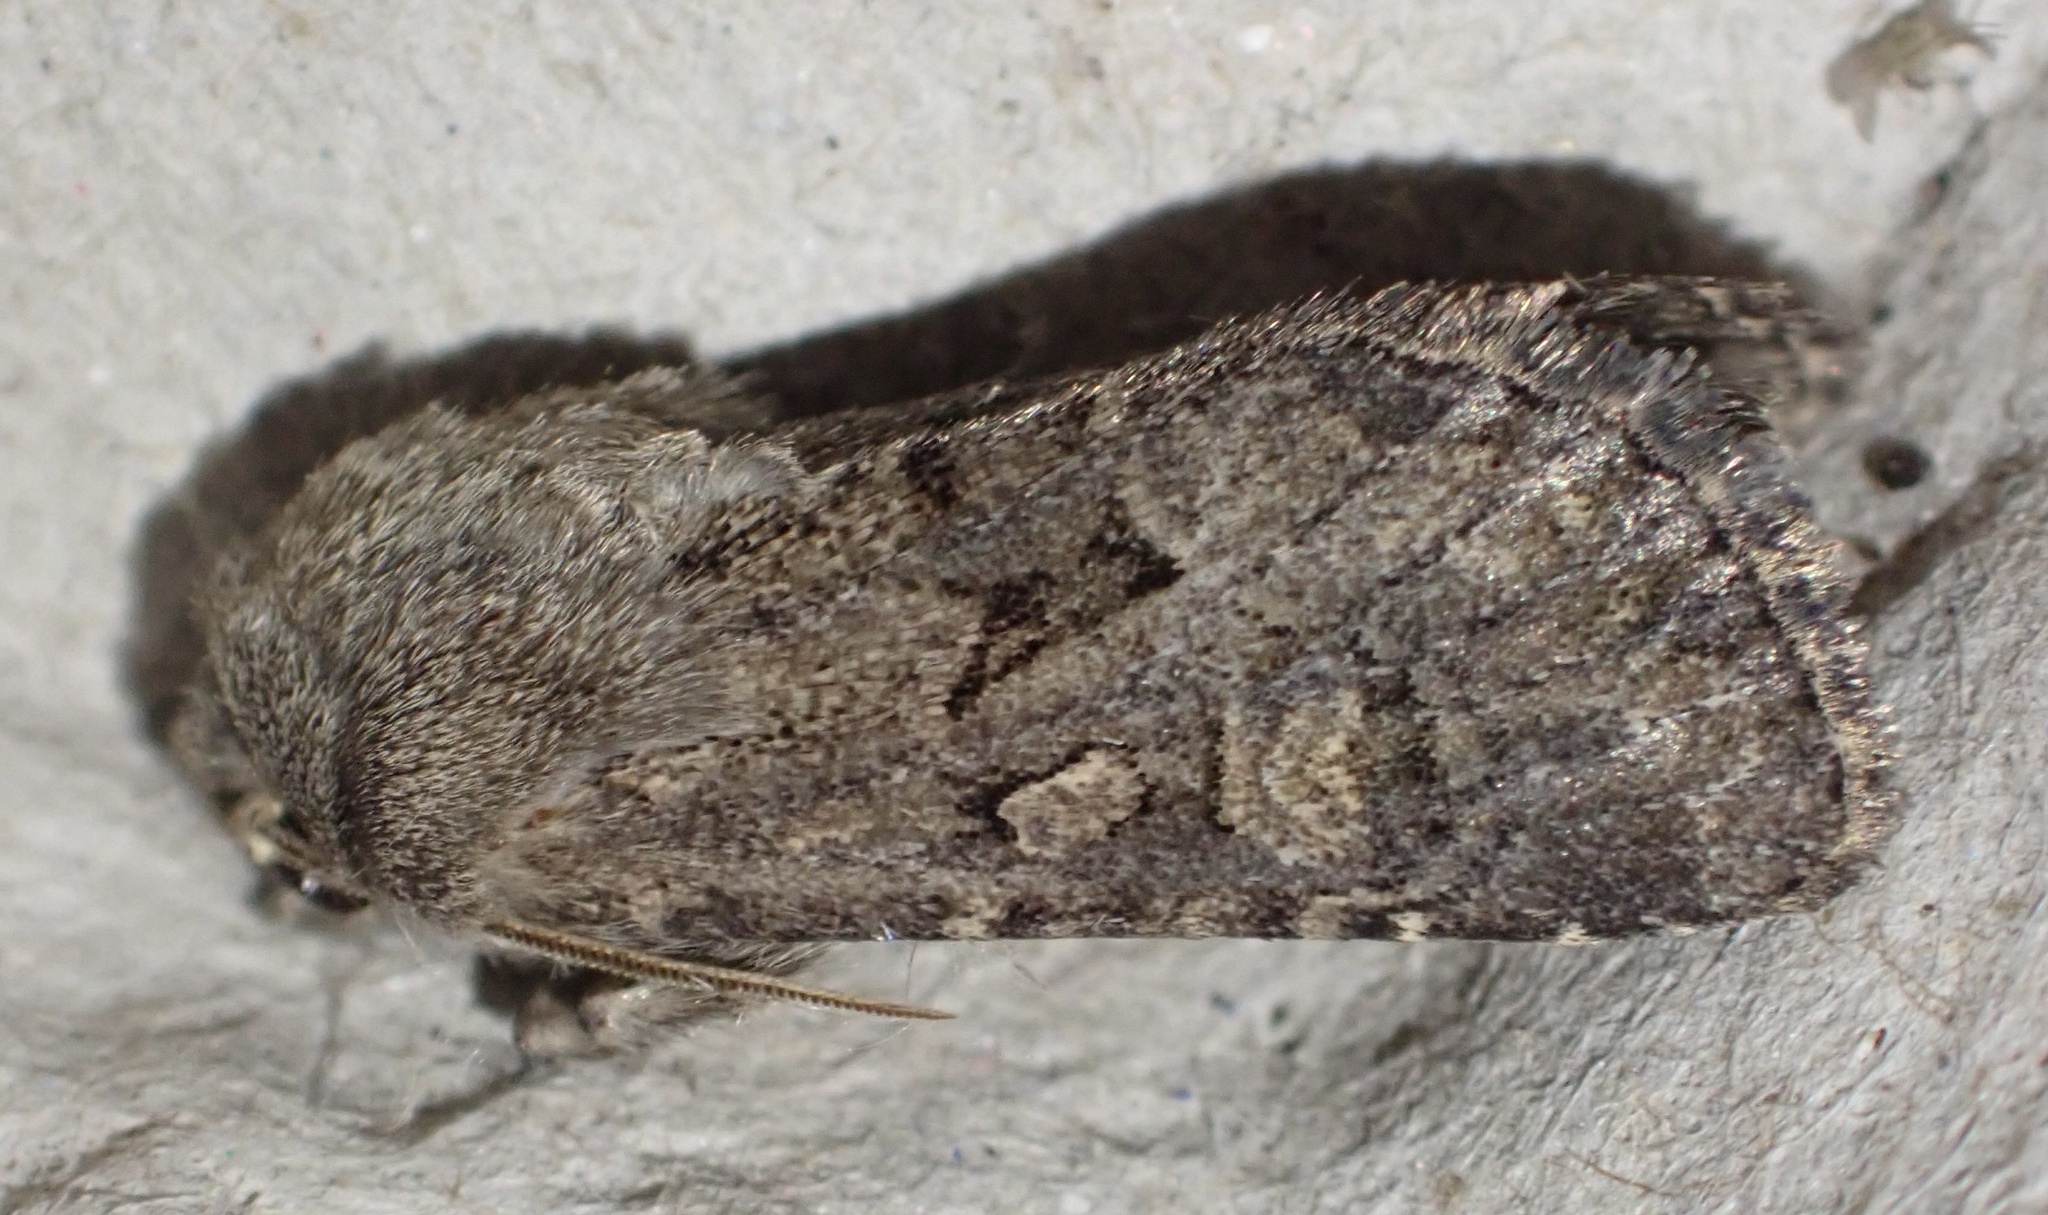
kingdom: Animalia
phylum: Arthropoda
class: Insecta
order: Lepidoptera
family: Noctuidae
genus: Luperina
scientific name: Luperina testacea
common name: Flounced rustic
